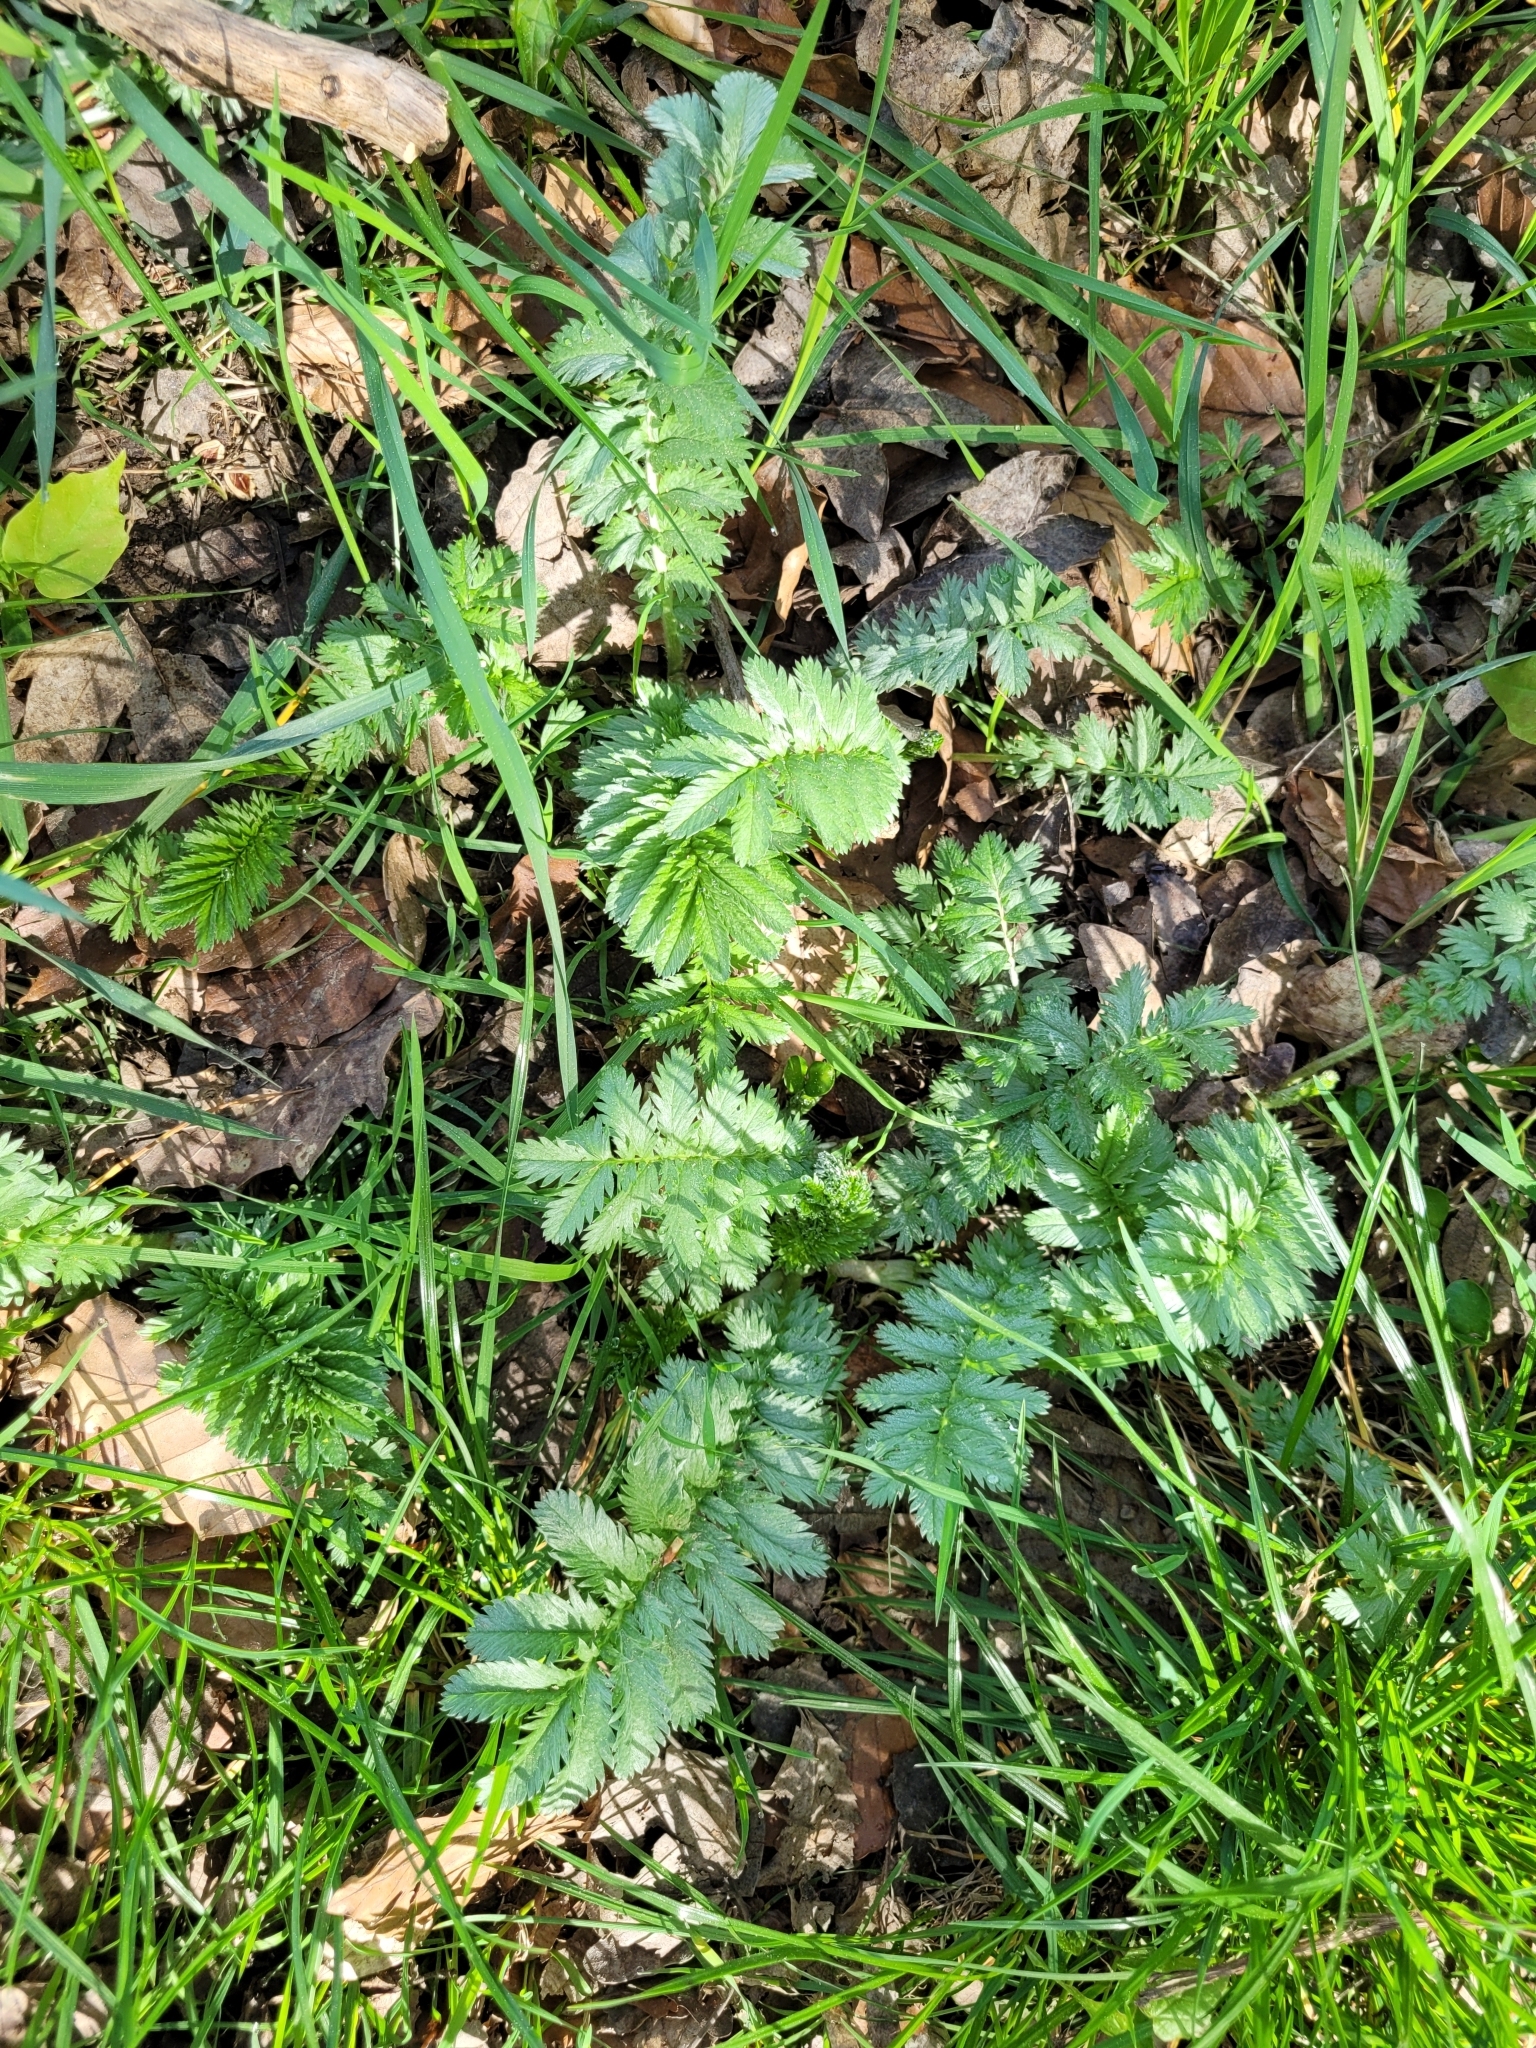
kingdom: Plantae
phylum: Tracheophyta
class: Magnoliopsida
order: Rosales
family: Rosaceae
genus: Argentina
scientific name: Argentina anserina
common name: Common silverweed
